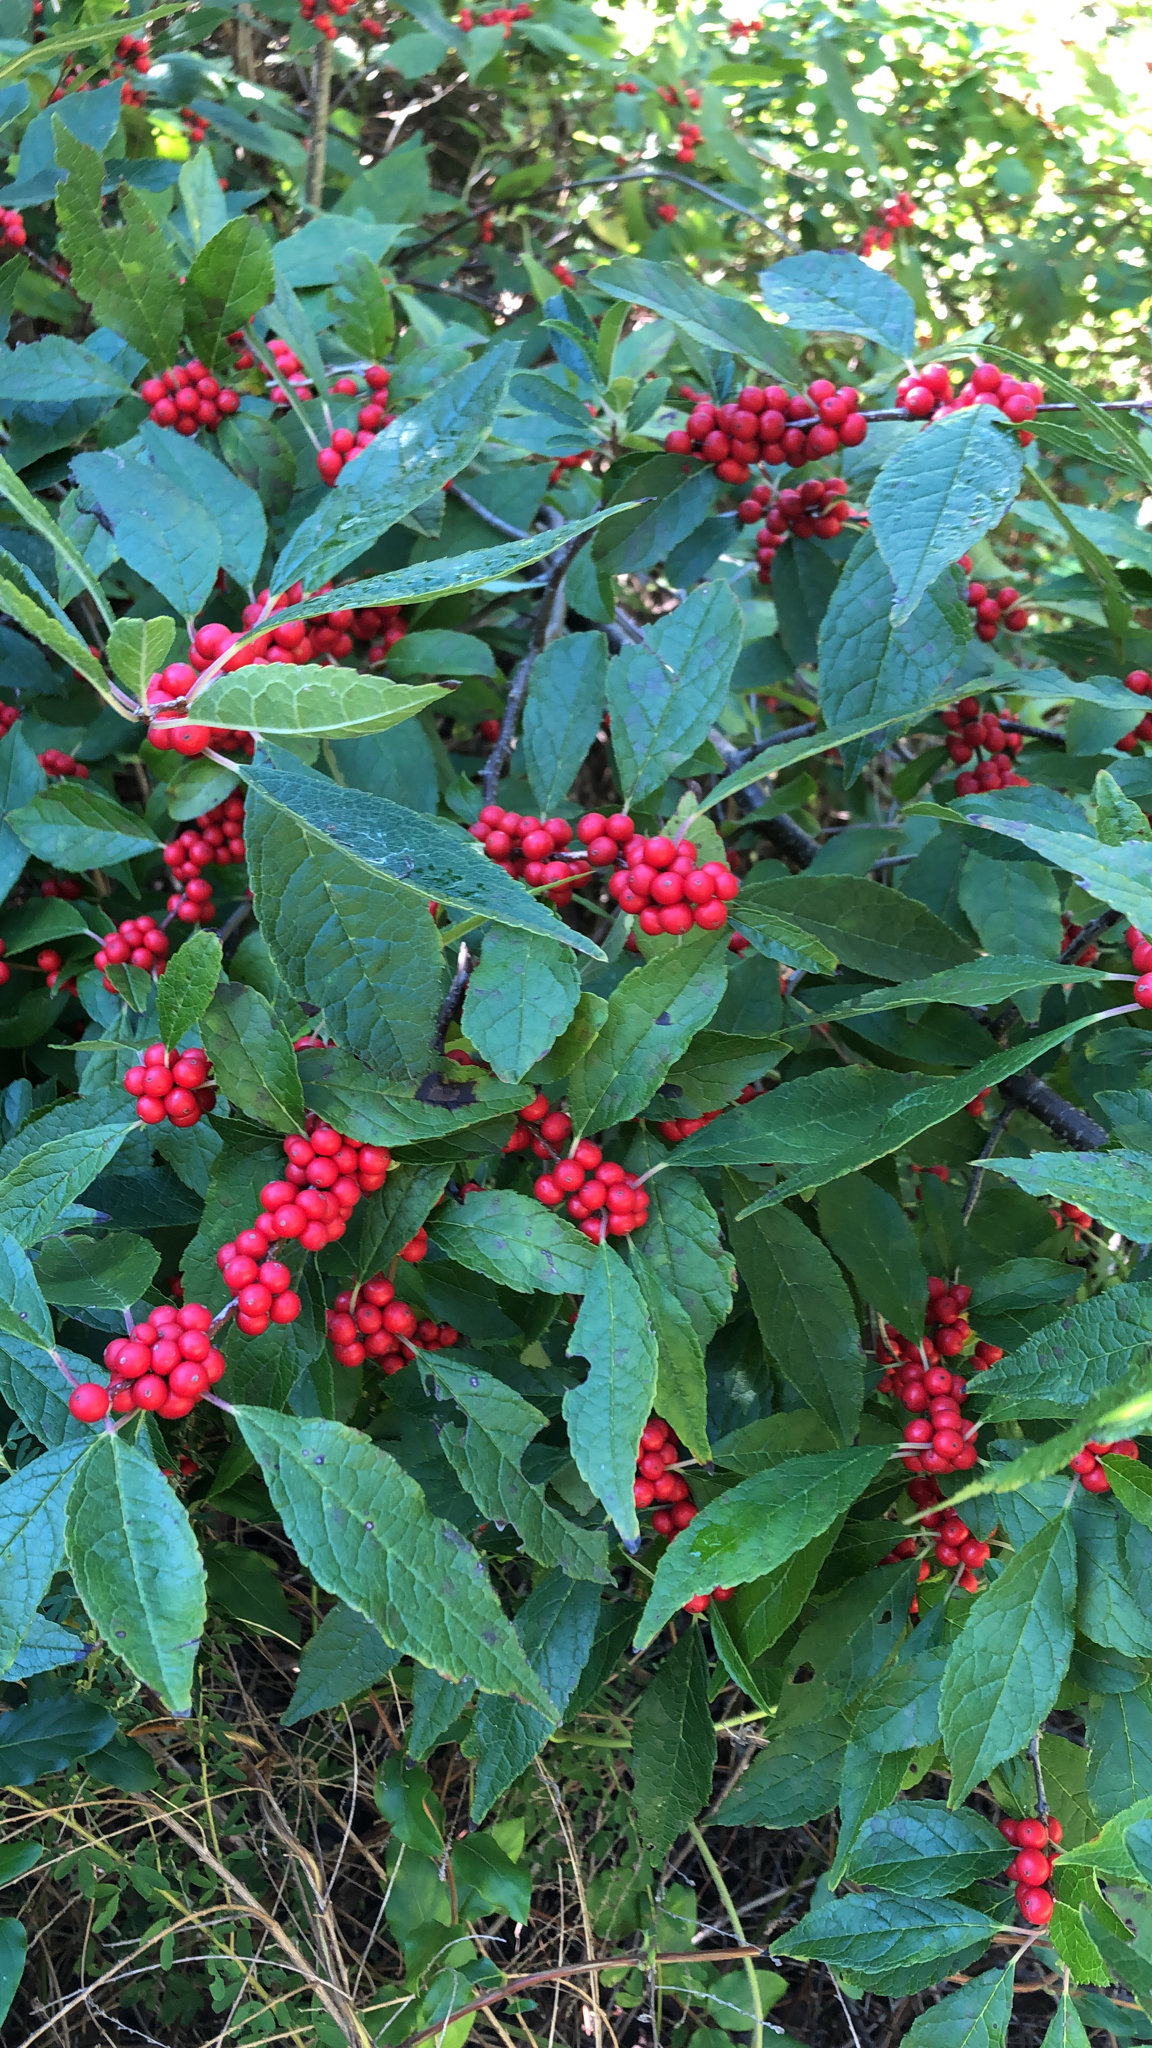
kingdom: Plantae
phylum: Tracheophyta
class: Magnoliopsida
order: Aquifoliales
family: Aquifoliaceae
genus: Ilex
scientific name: Ilex verticillata
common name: Virginia winterberry
